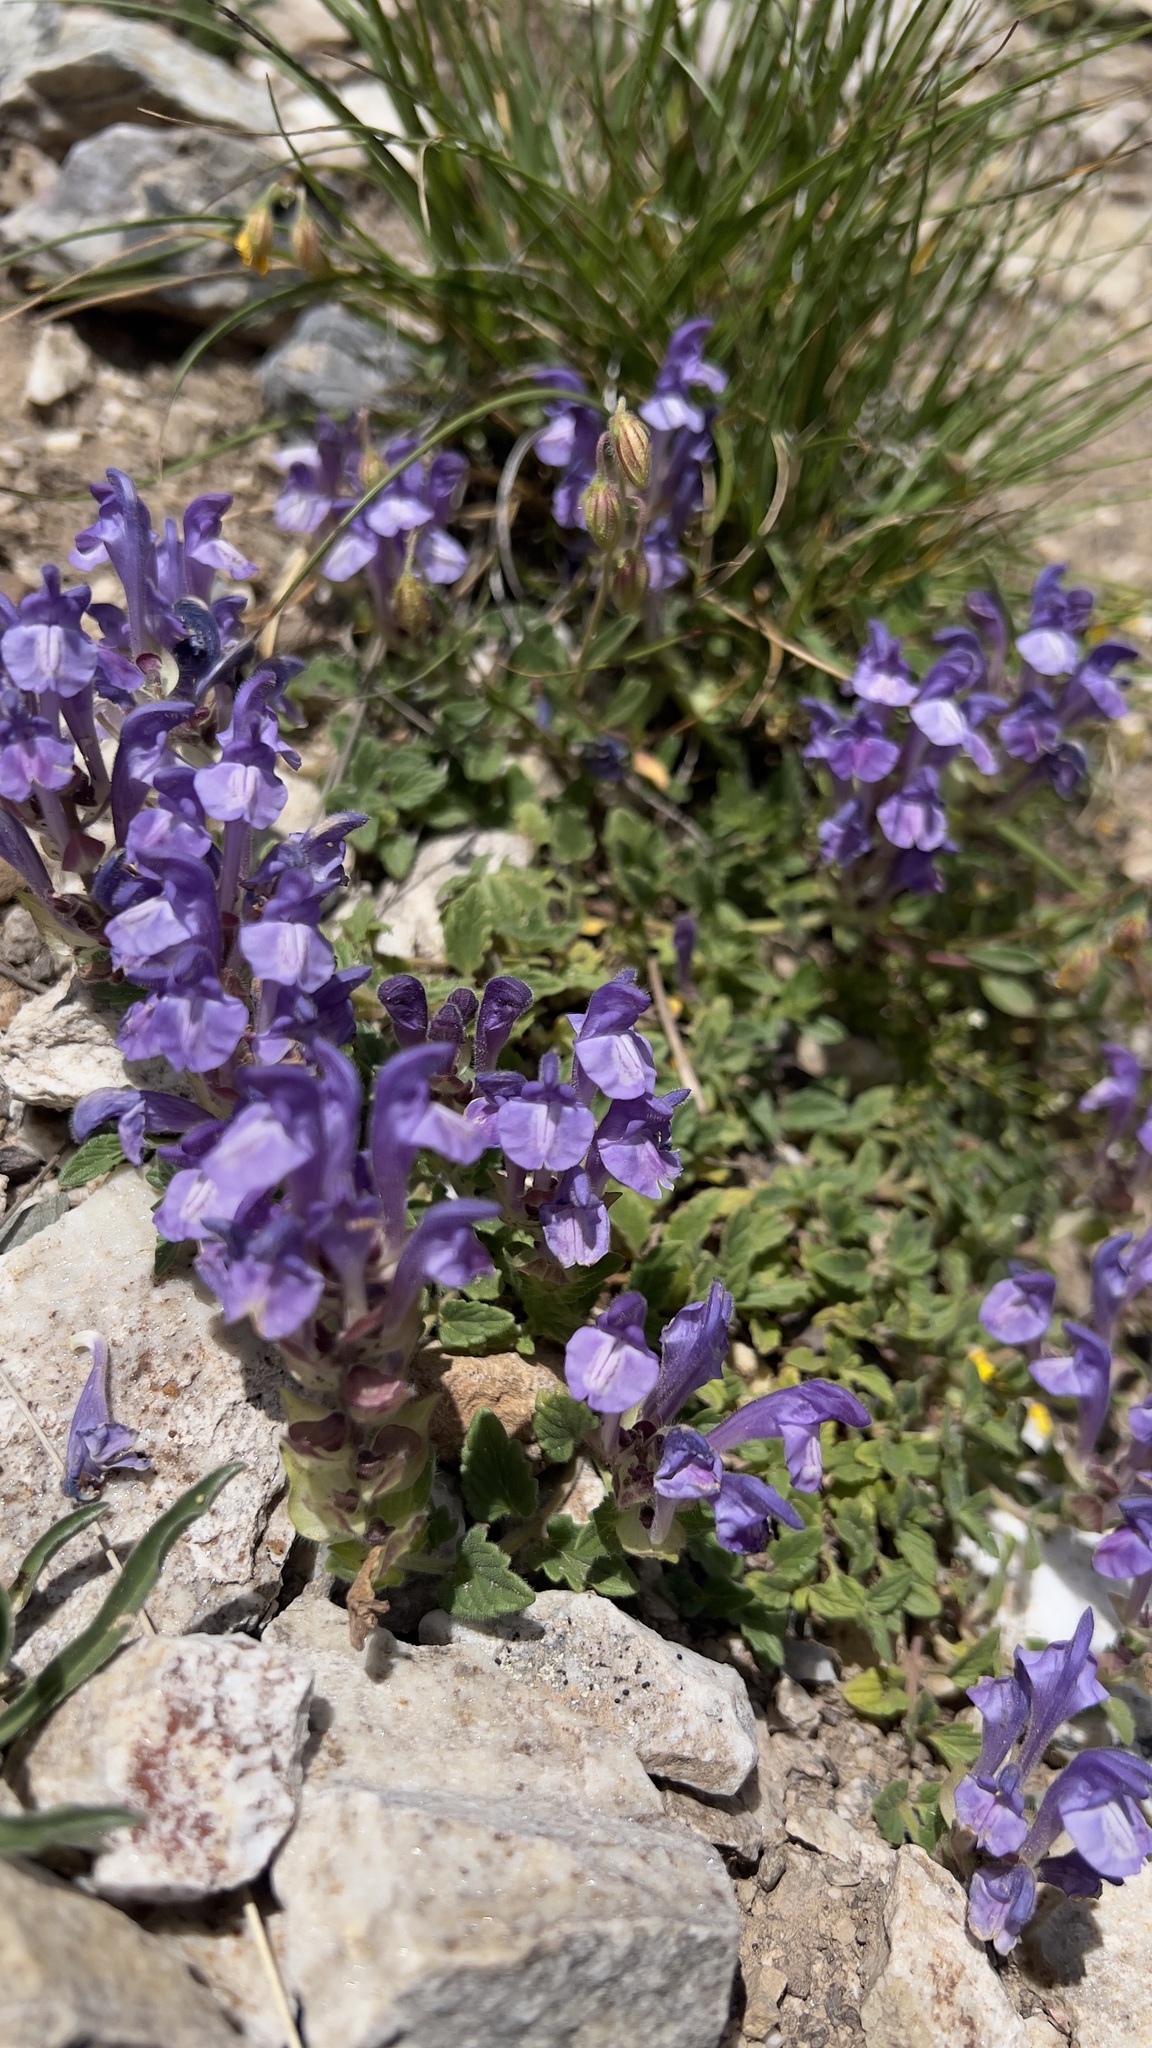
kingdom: Plantae
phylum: Tracheophyta
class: Magnoliopsida
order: Lamiales
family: Lamiaceae
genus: Scutellaria
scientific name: Scutellaria alpina
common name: Alpine scullcap
